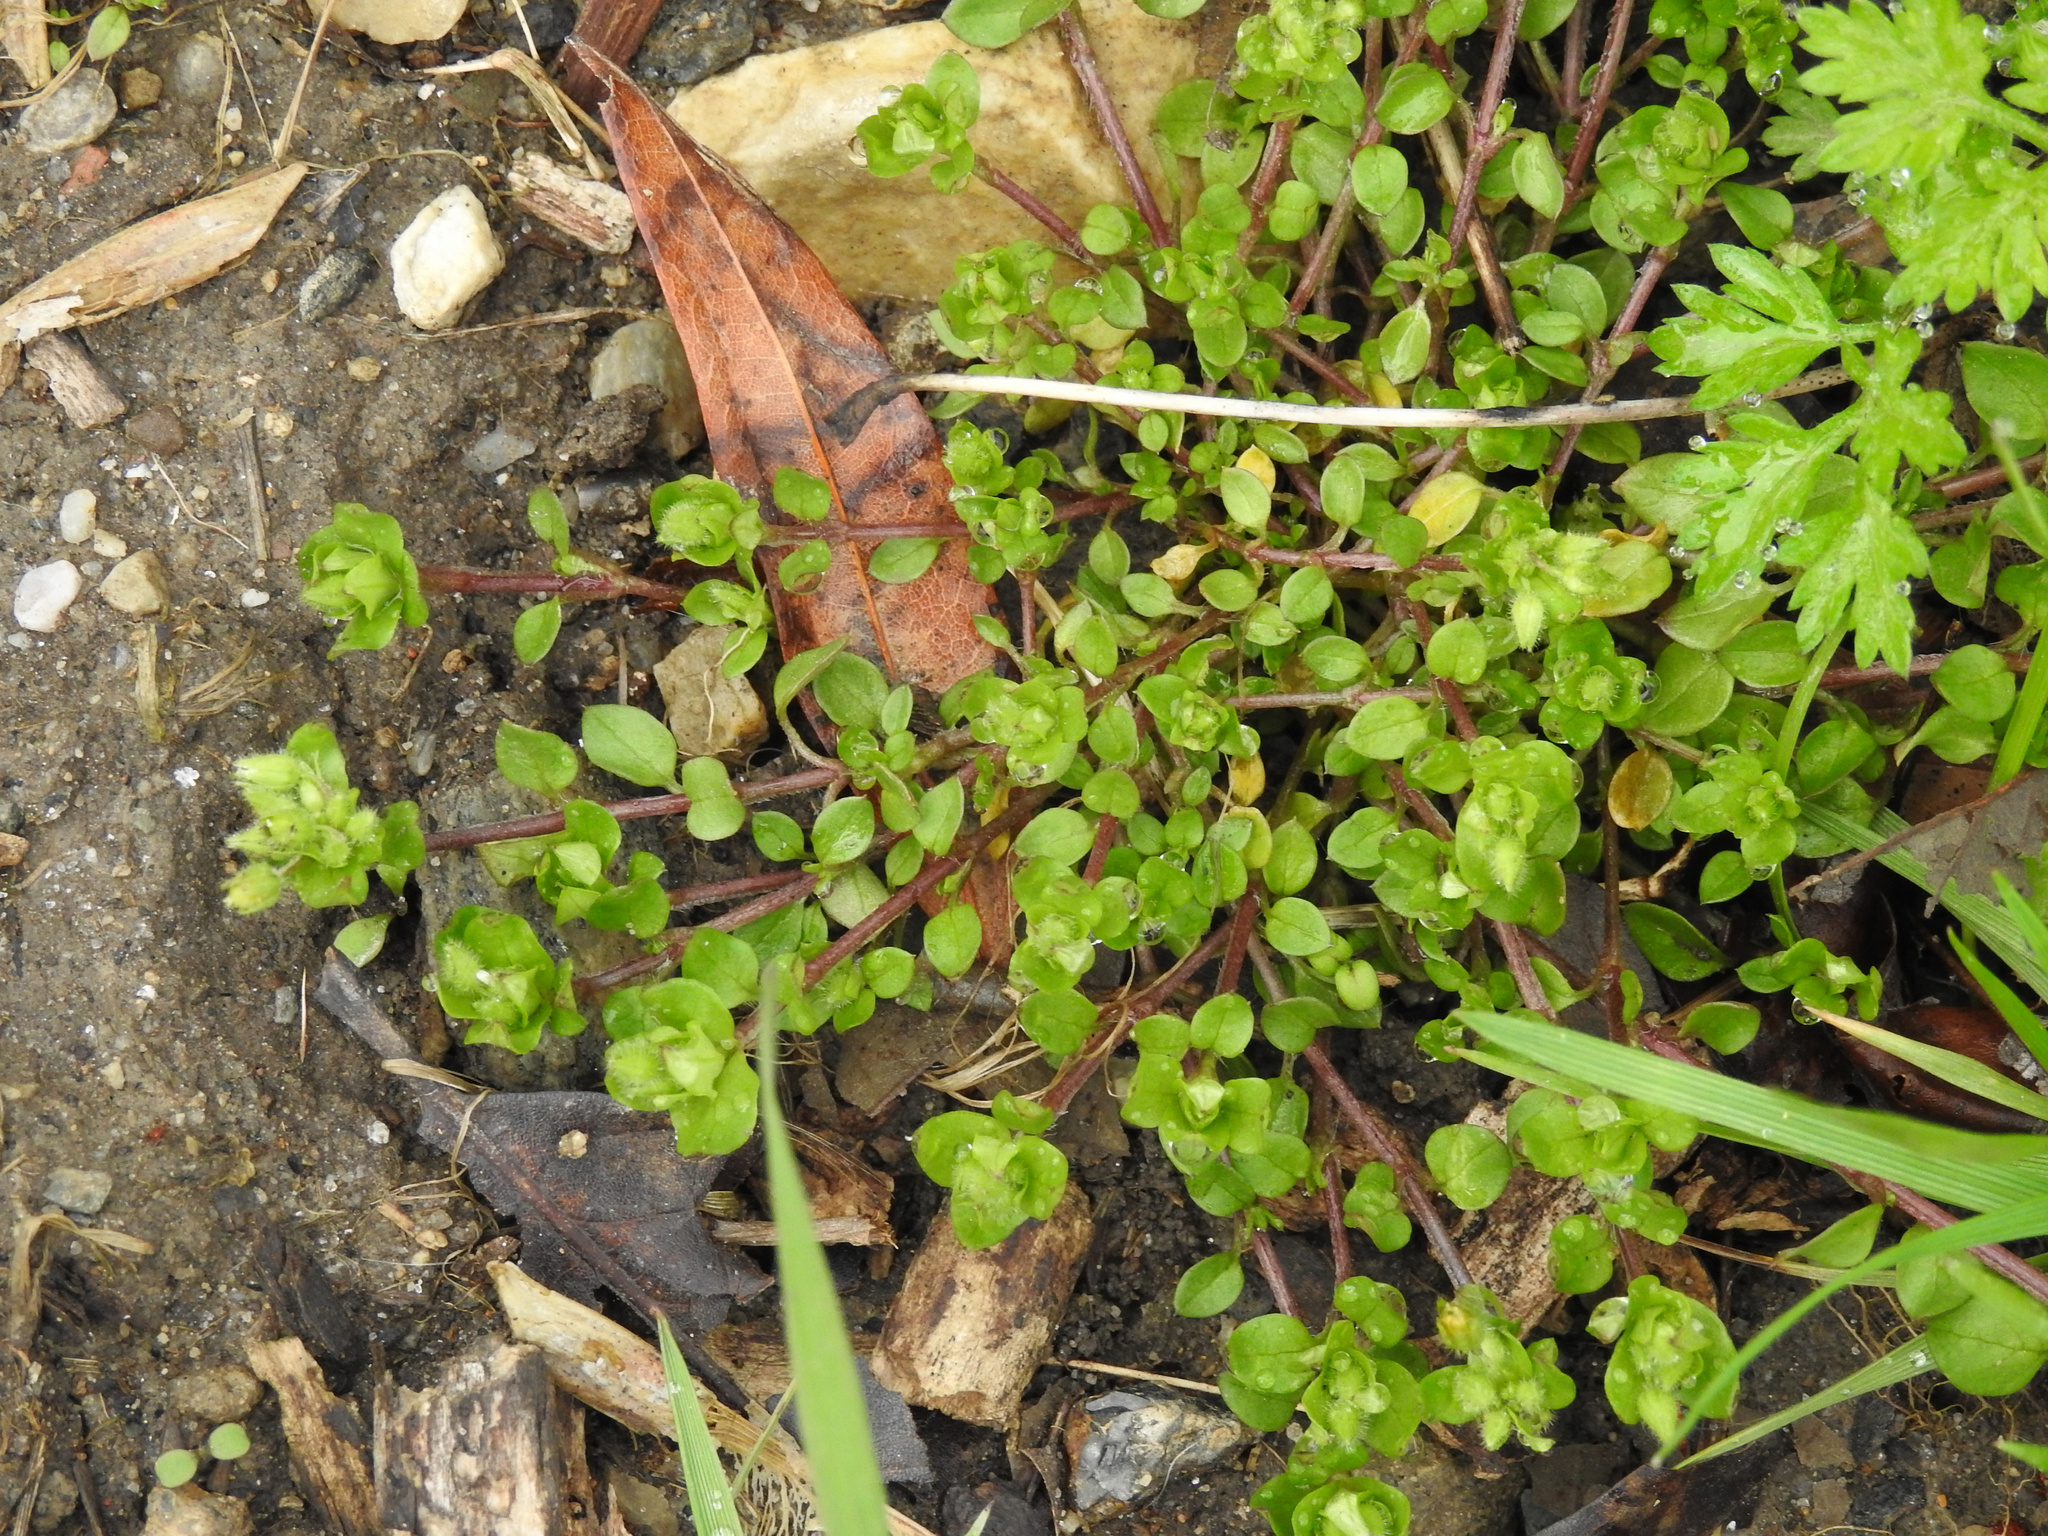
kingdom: Plantae
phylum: Tracheophyta
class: Magnoliopsida
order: Caryophyllales
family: Caryophyllaceae
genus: Stellaria
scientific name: Stellaria media
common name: Common chickweed
